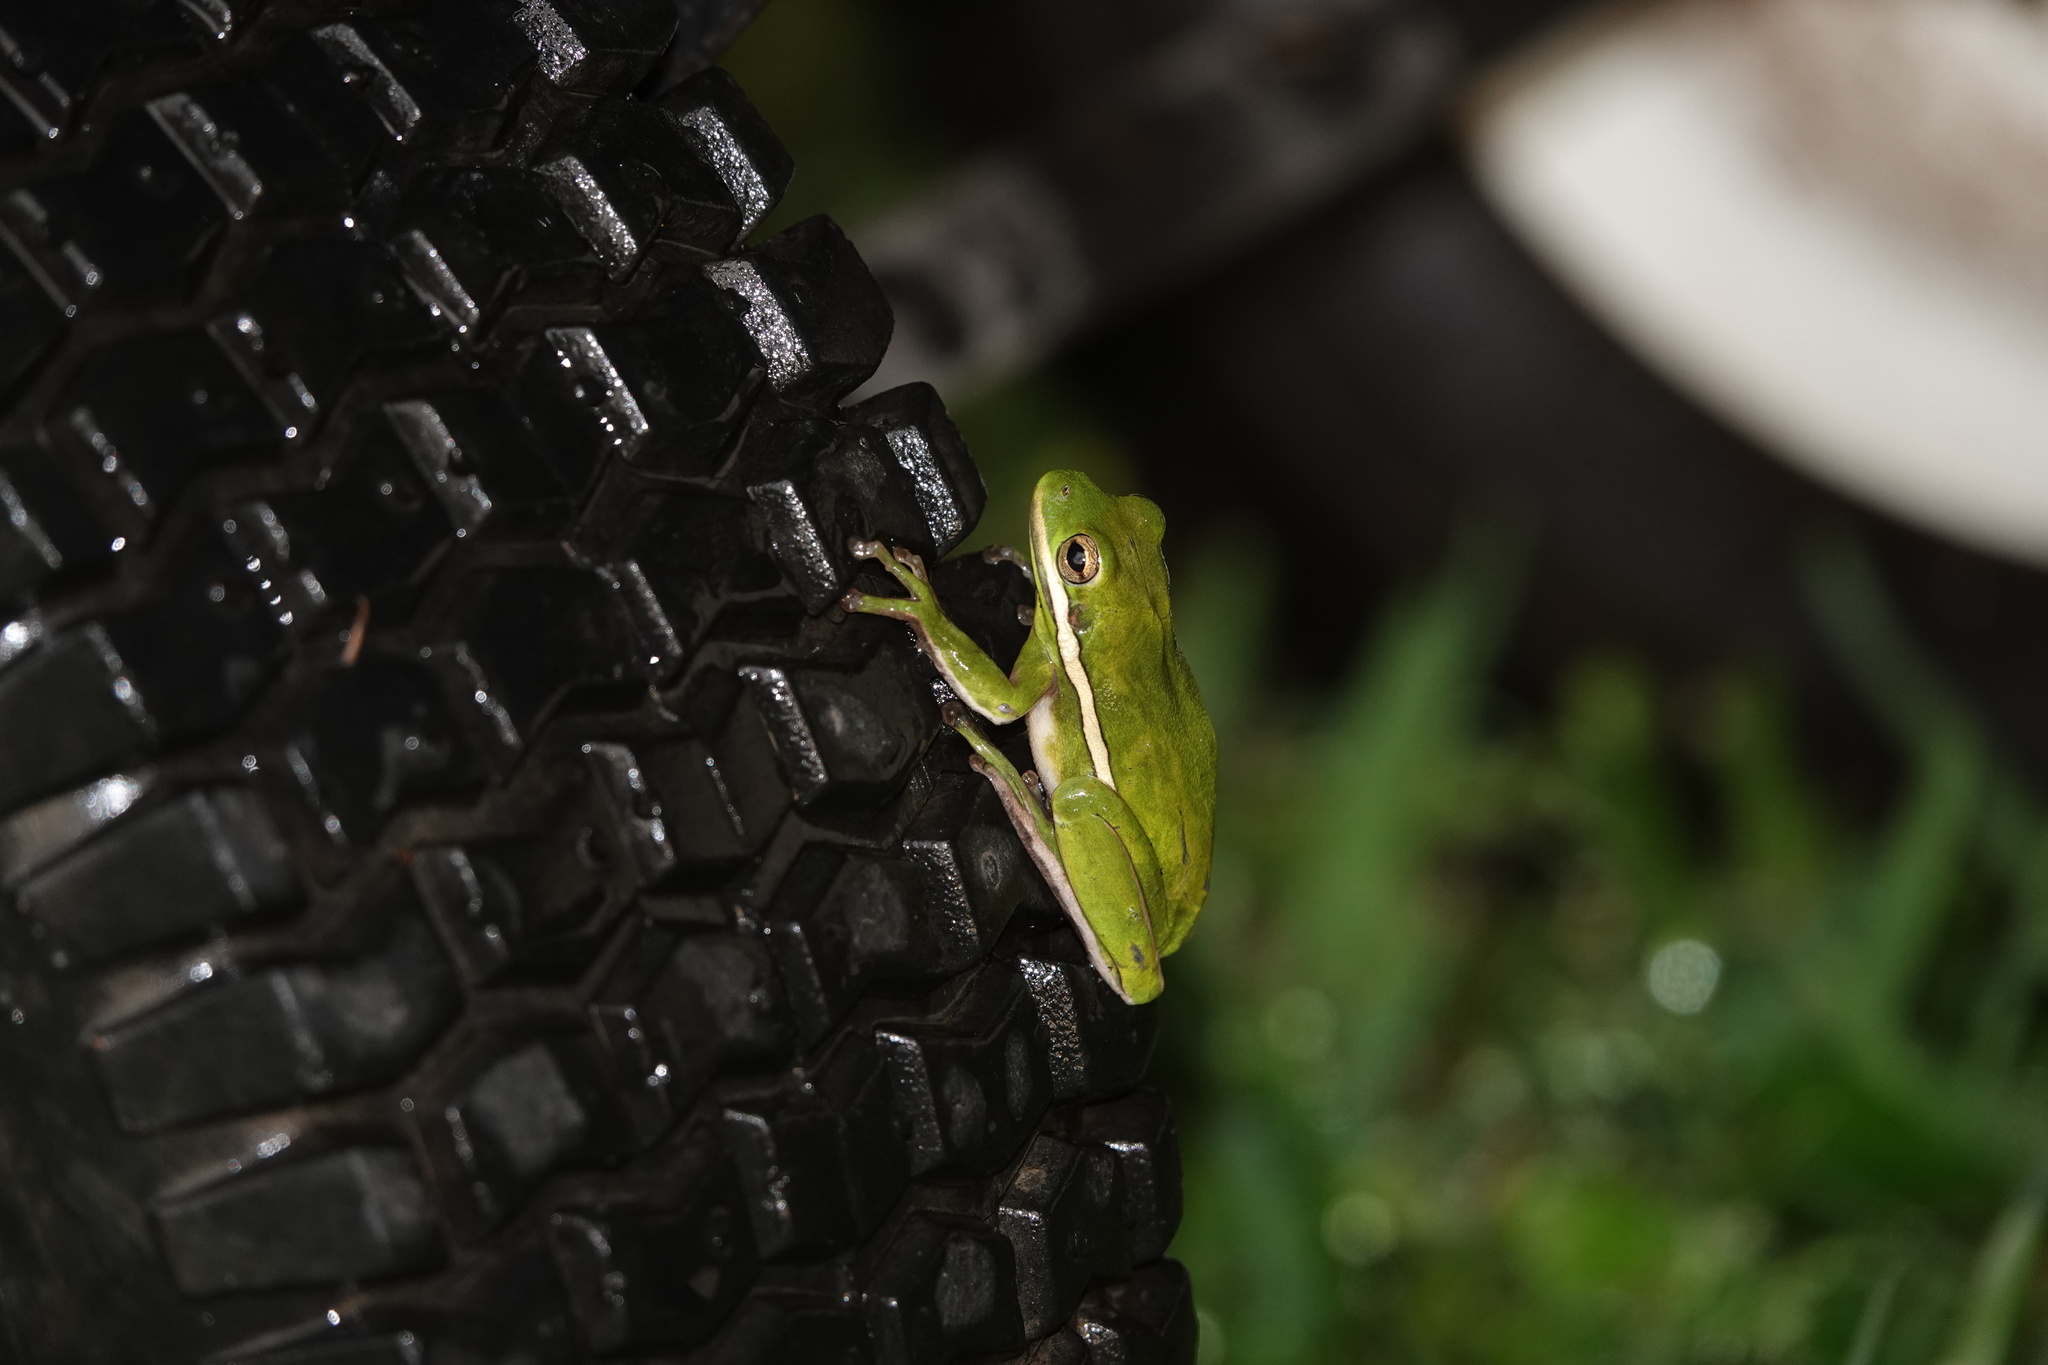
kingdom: Animalia
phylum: Chordata
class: Amphibia
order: Anura
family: Hylidae
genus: Dryophytes
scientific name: Dryophytes cinereus
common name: Green treefrog
